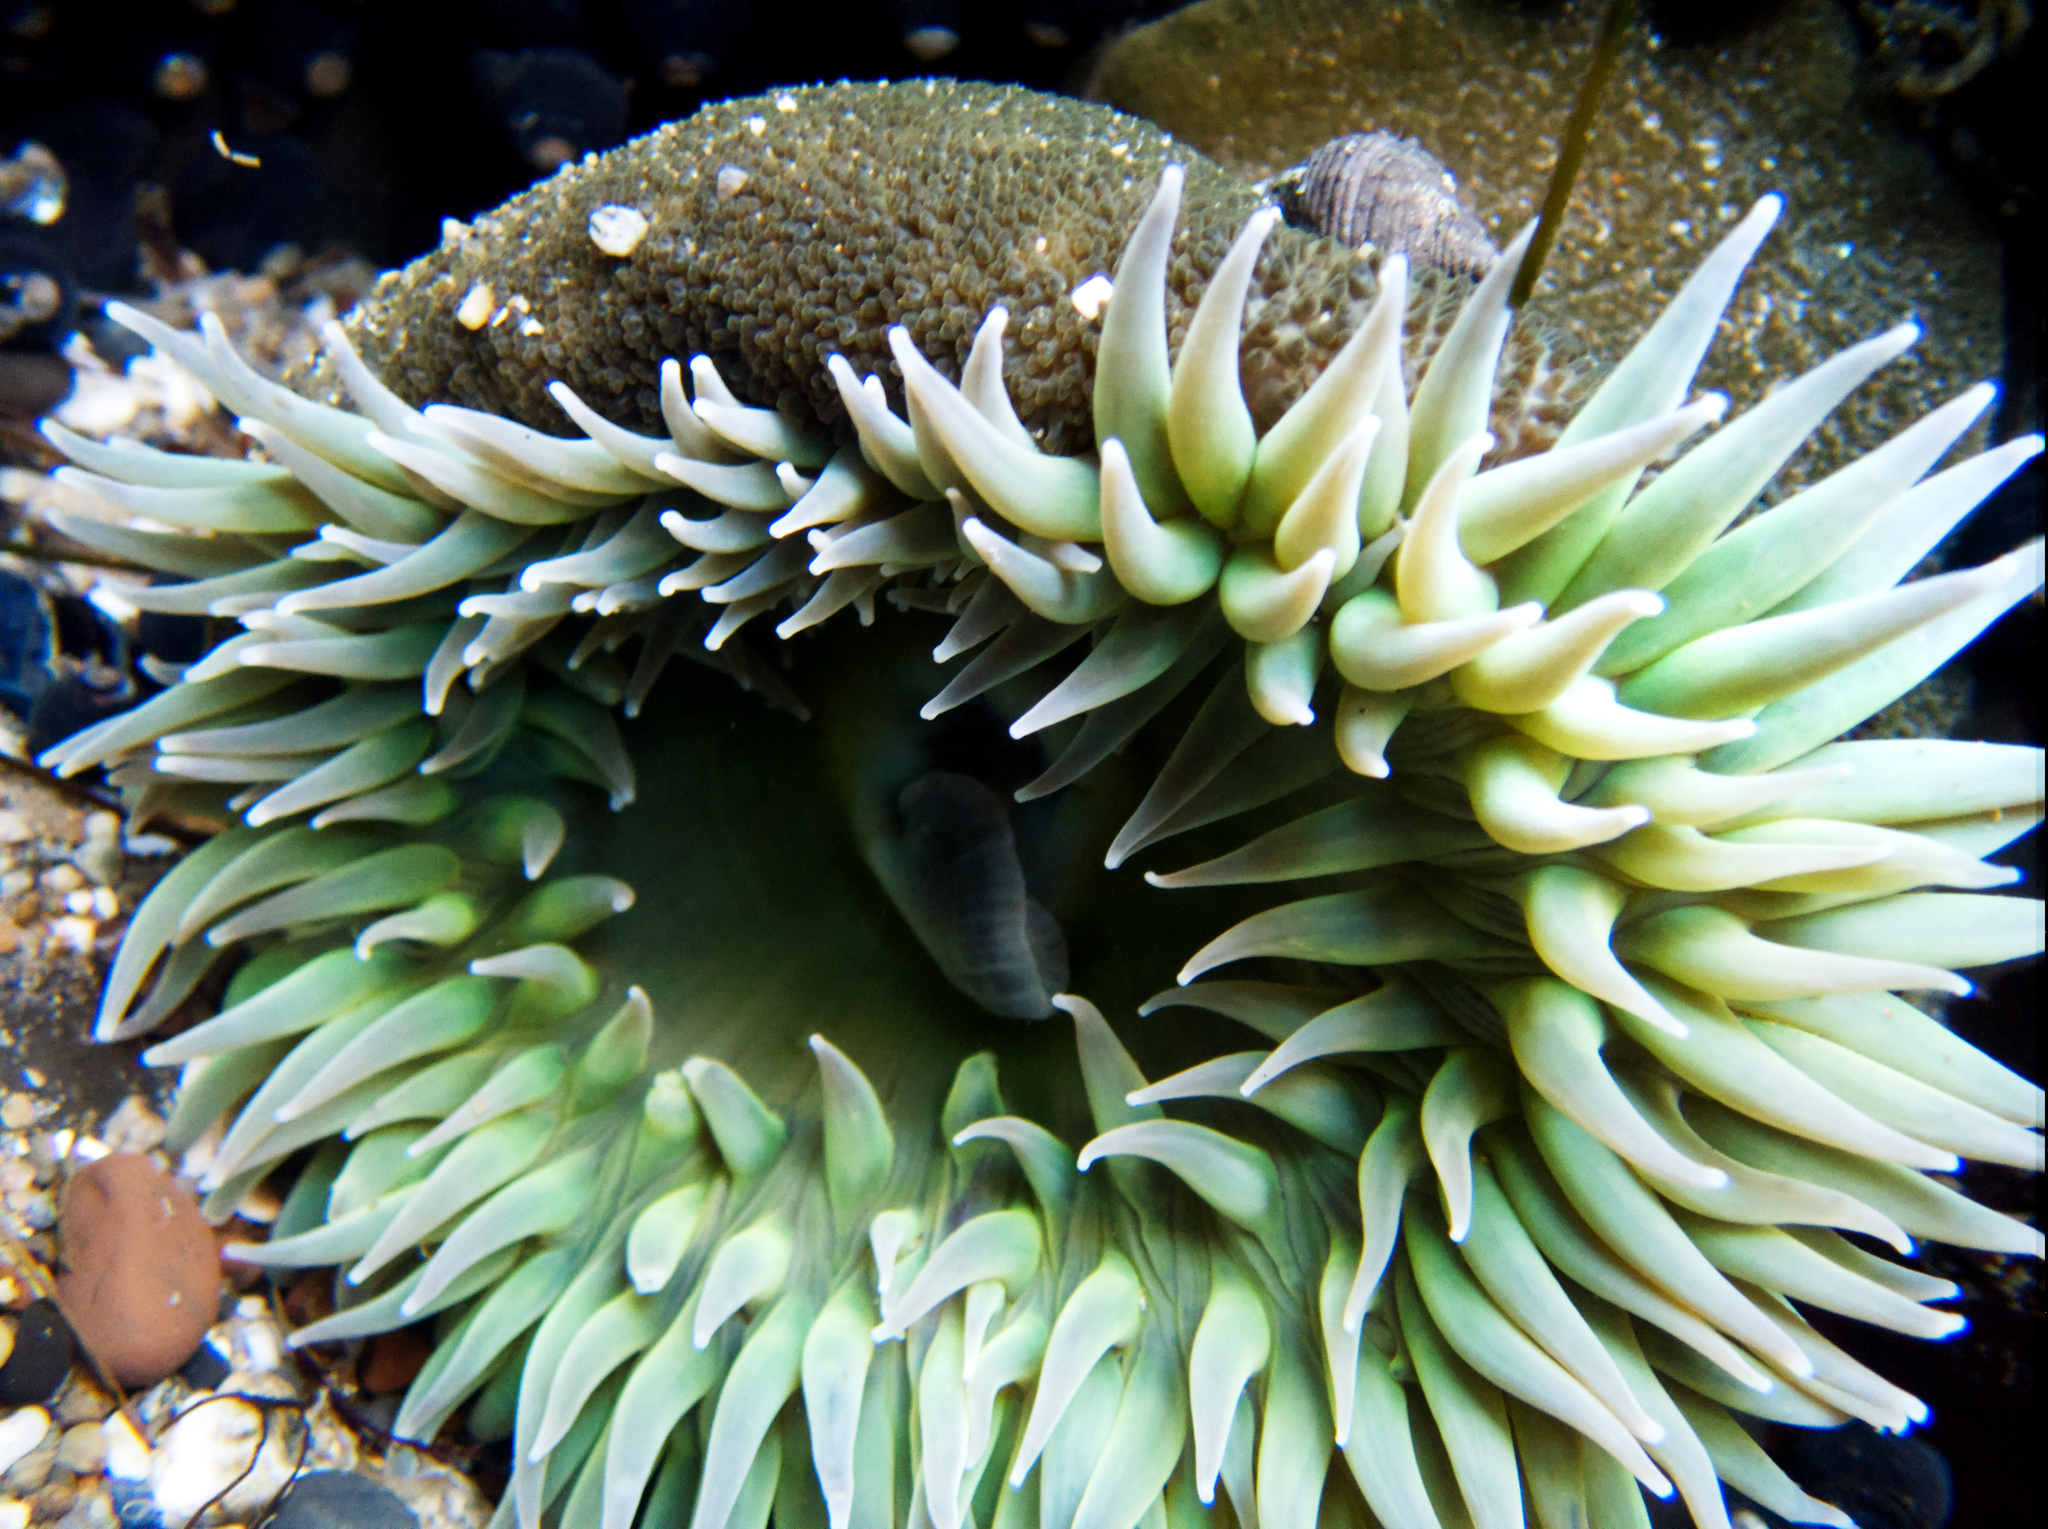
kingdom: Animalia
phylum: Cnidaria
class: Anthozoa
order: Actiniaria
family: Actiniidae
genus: Anthopleura
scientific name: Anthopleura xanthogrammica
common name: Giant green anemone
